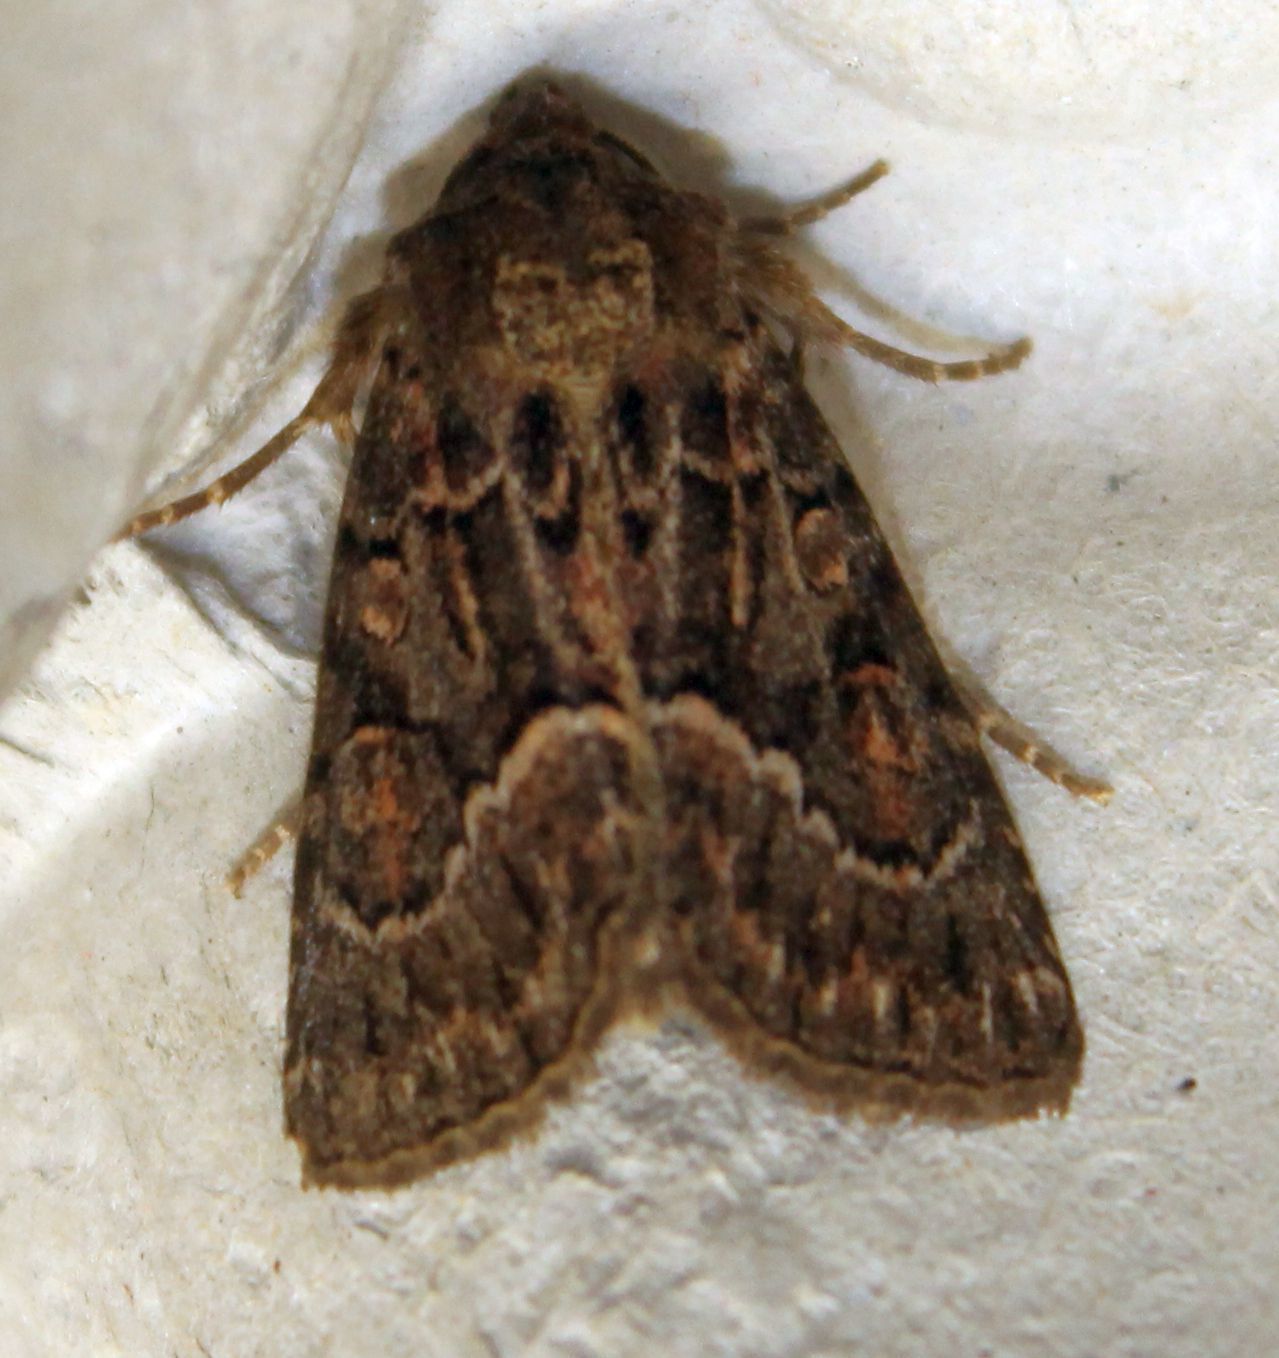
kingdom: Animalia
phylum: Arthropoda
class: Insecta
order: Lepidoptera
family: Noctuidae
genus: Thalpophila
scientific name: Thalpophila matura
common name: Straw underwing
